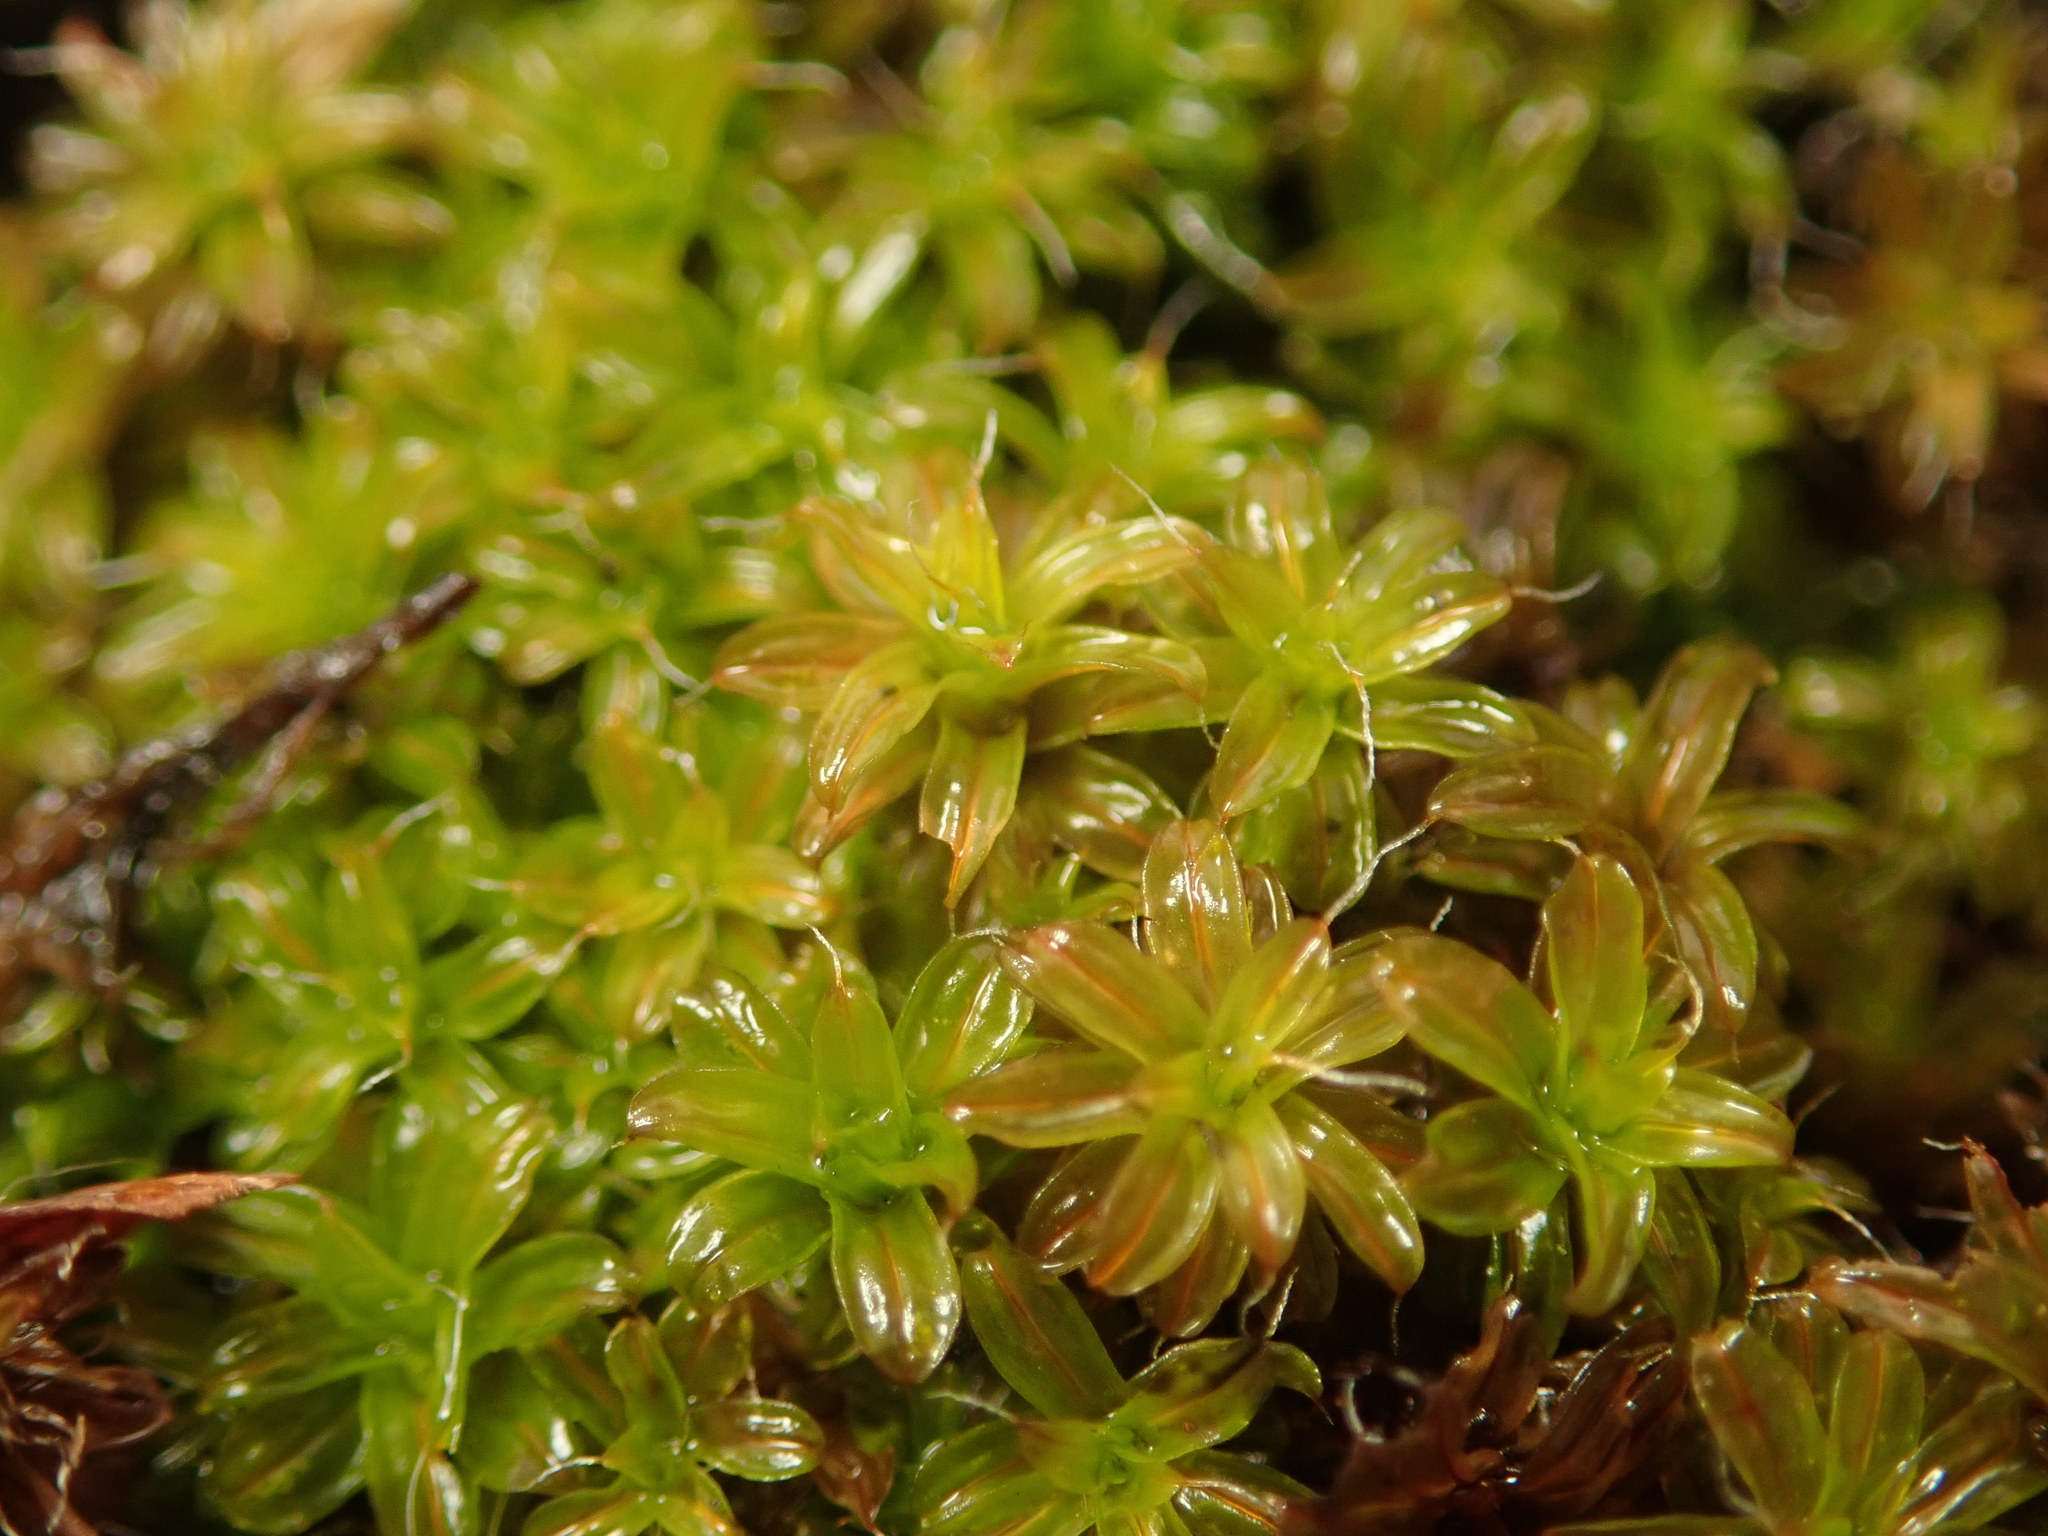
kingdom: Plantae
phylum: Bryophyta
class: Bryopsida
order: Pottiales
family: Pottiaceae
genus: Syntrichia
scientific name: Syntrichia ruralis
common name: Sidewalk screw moss
